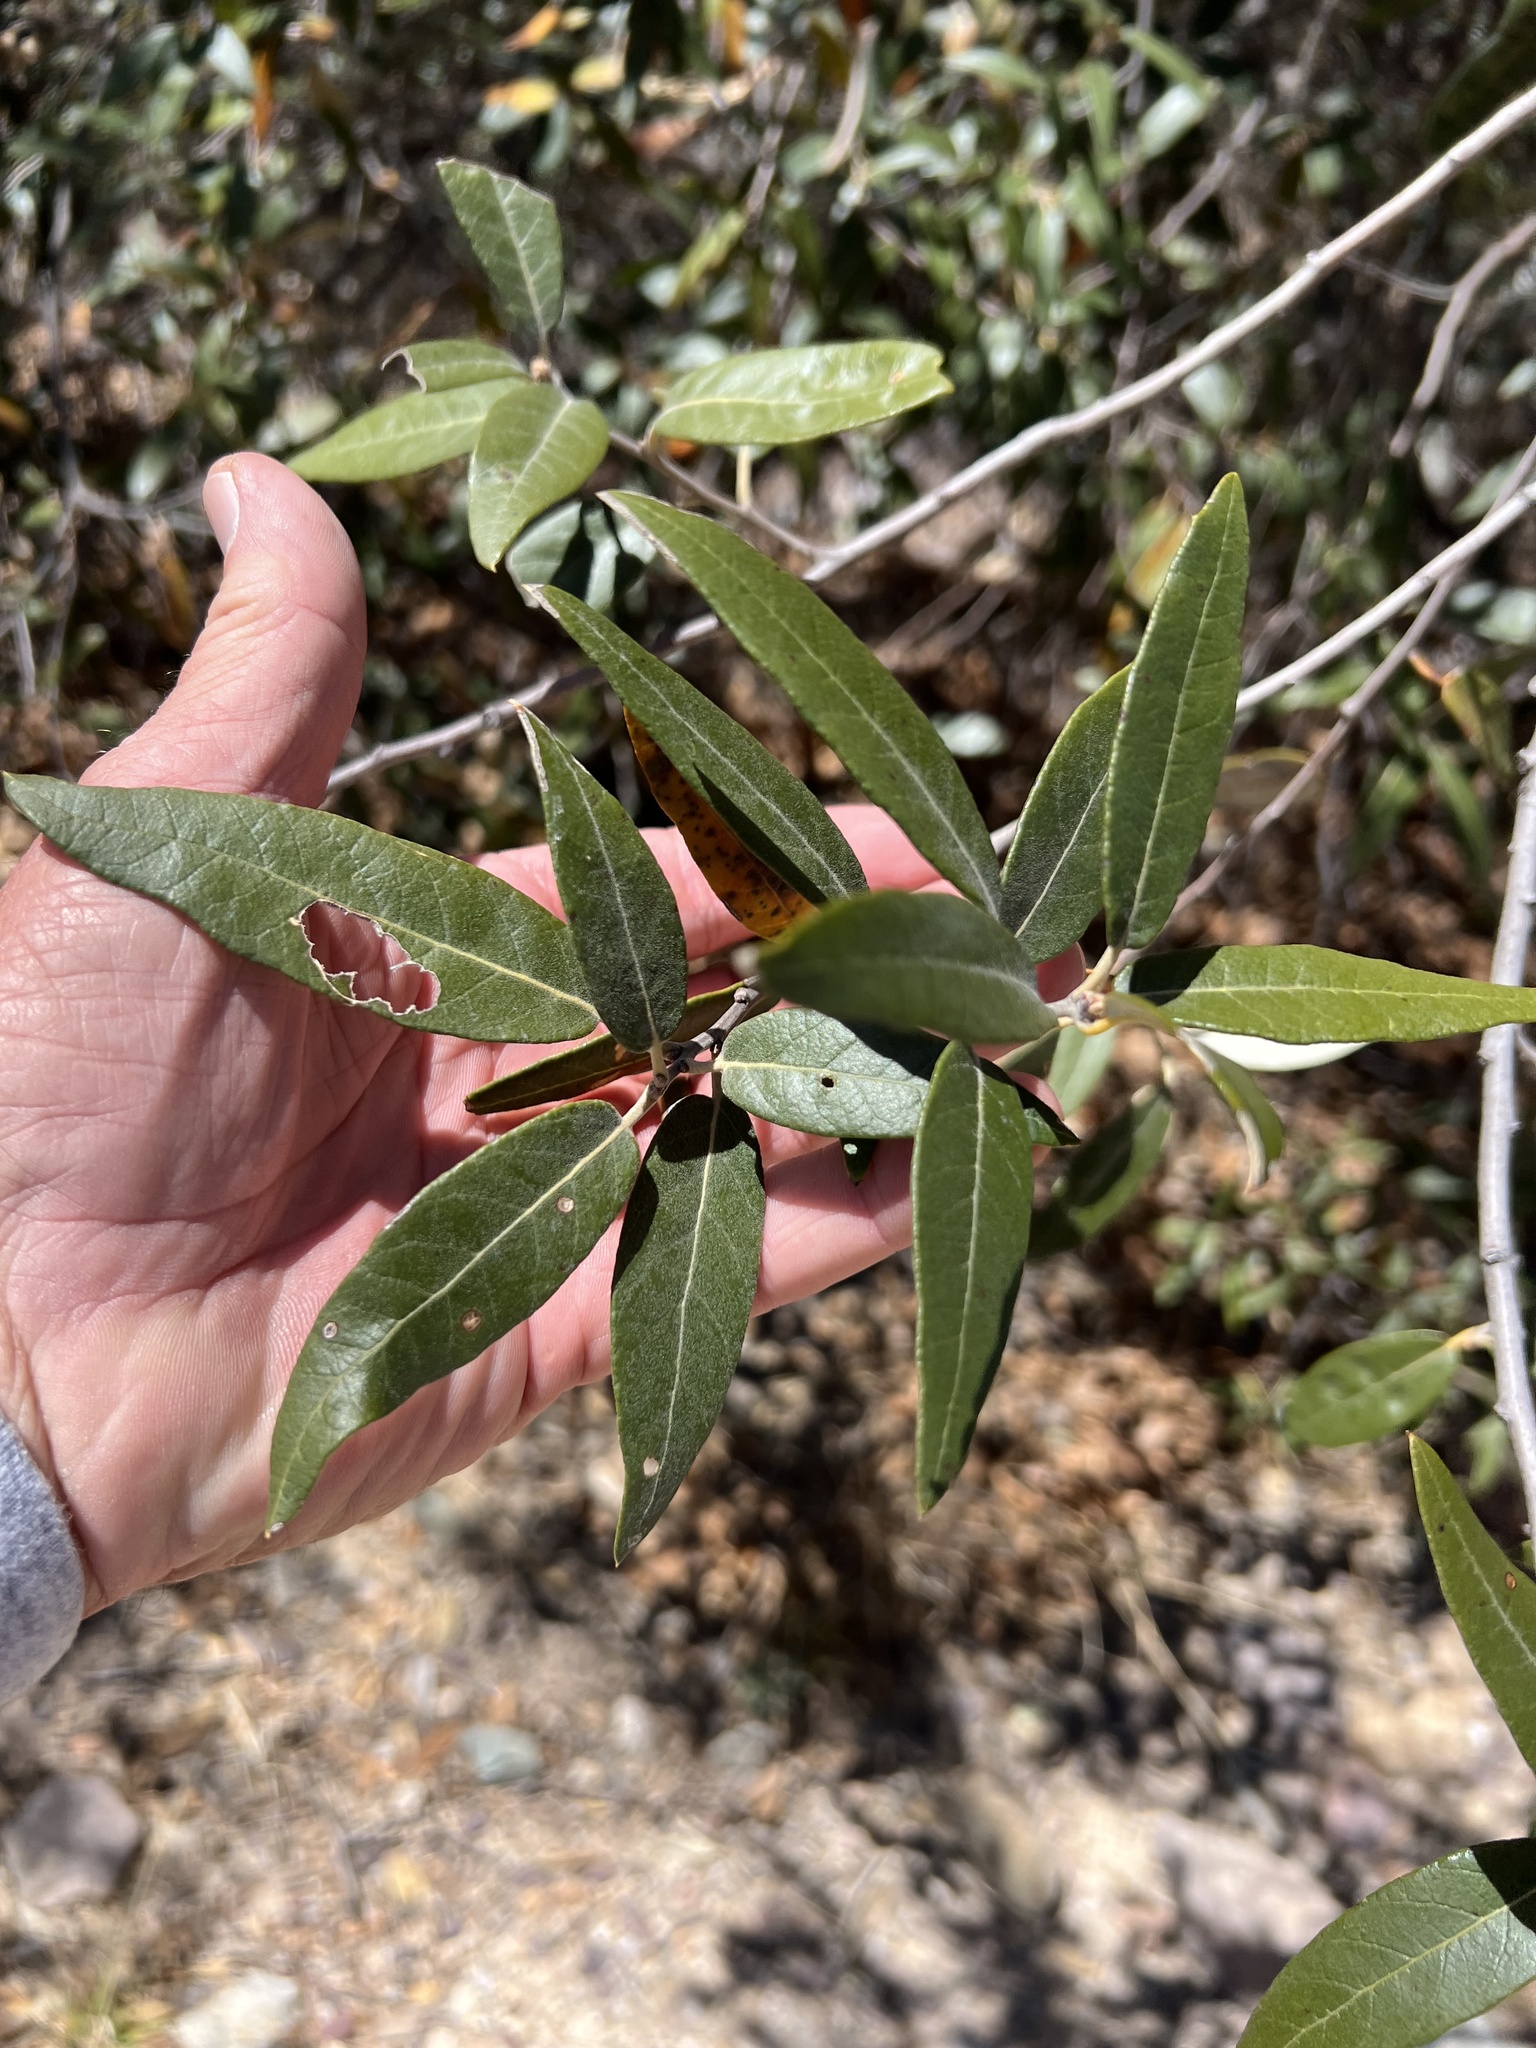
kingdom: Plantae
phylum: Tracheophyta
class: Magnoliopsida
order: Fagales
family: Fagaceae
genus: Quercus
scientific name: Quercus hypoleucoides
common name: Silverleaf oak
